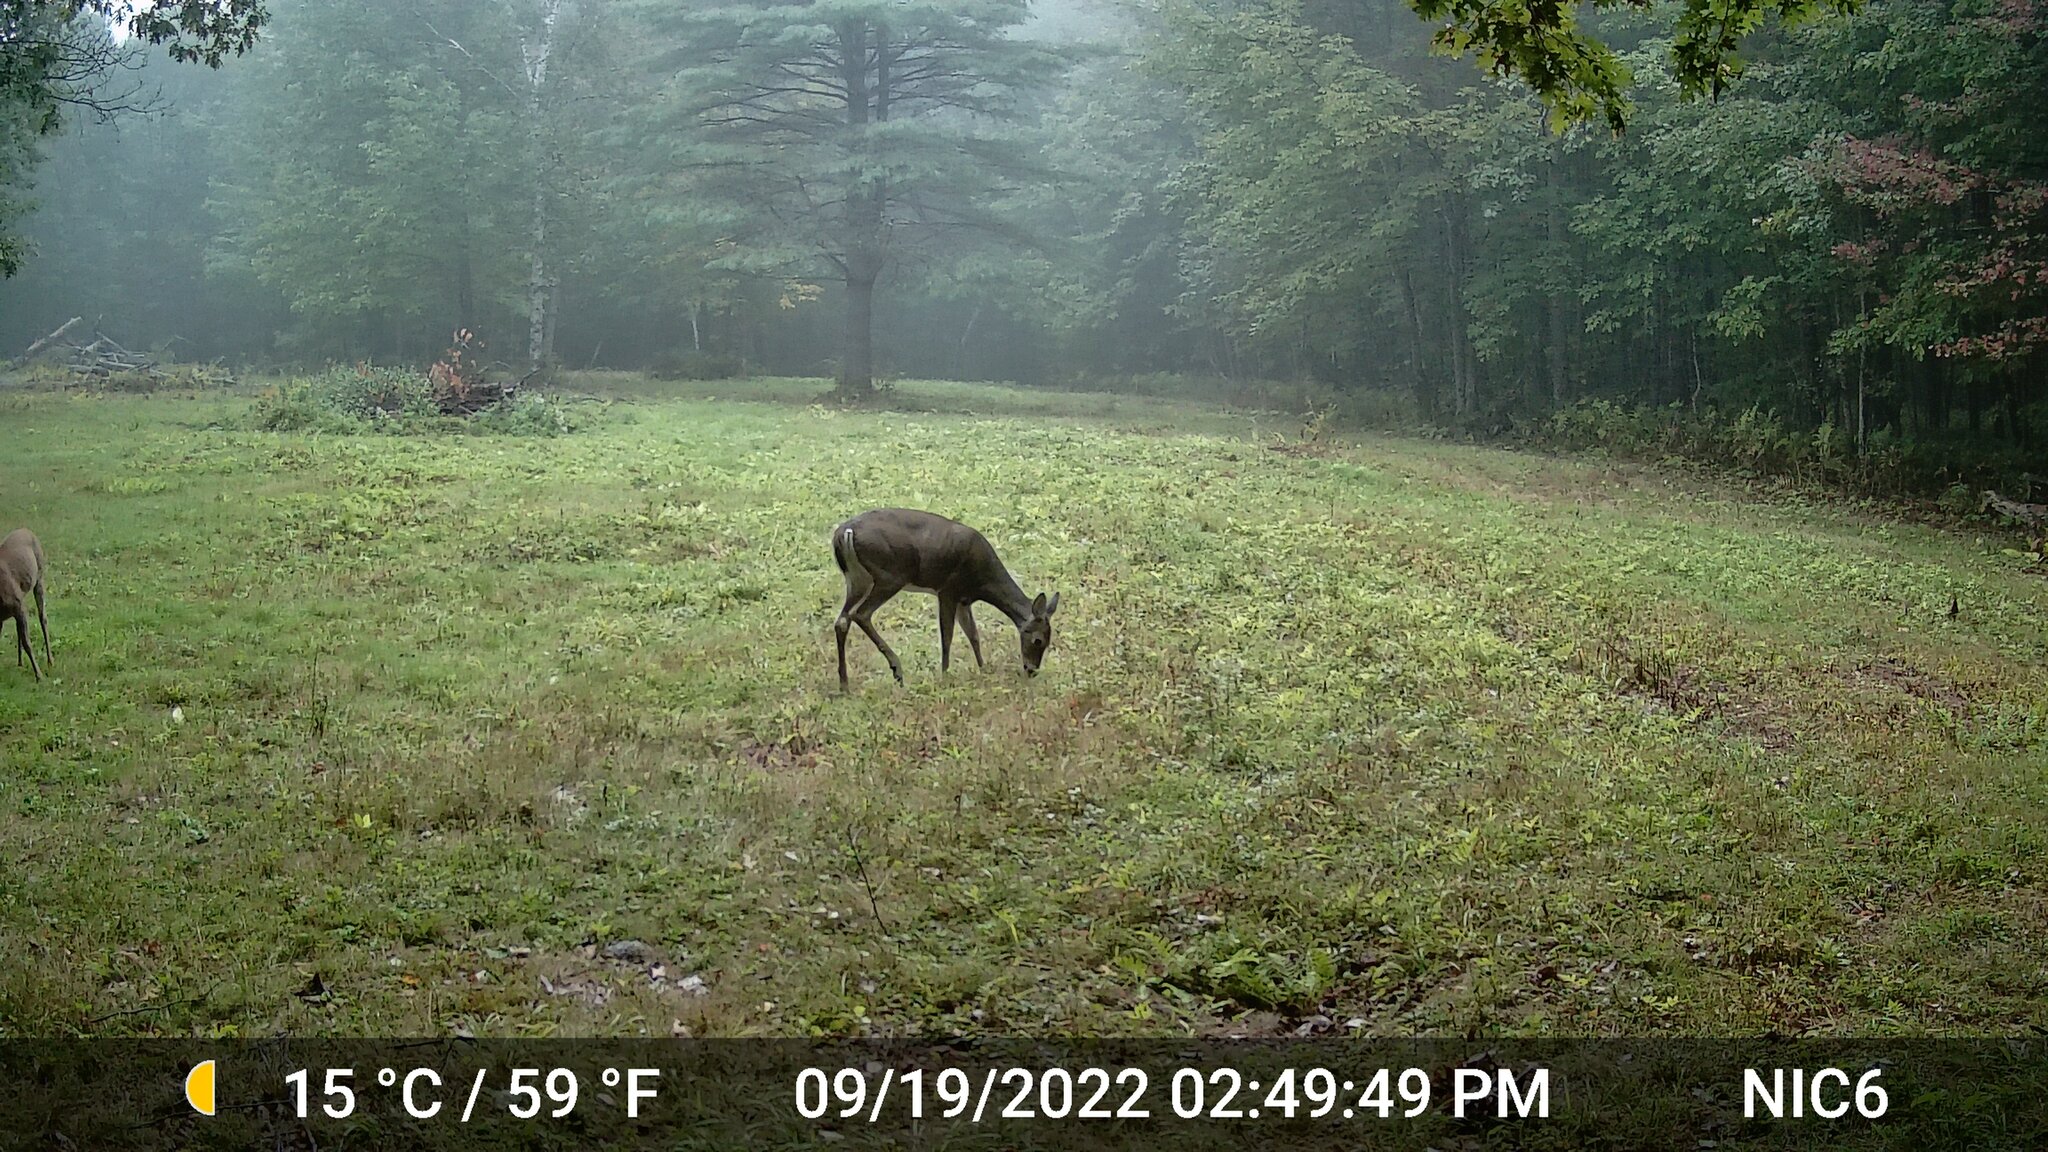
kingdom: Animalia
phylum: Chordata
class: Mammalia
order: Artiodactyla
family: Cervidae
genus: Odocoileus
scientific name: Odocoileus virginianus
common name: White-tailed deer
